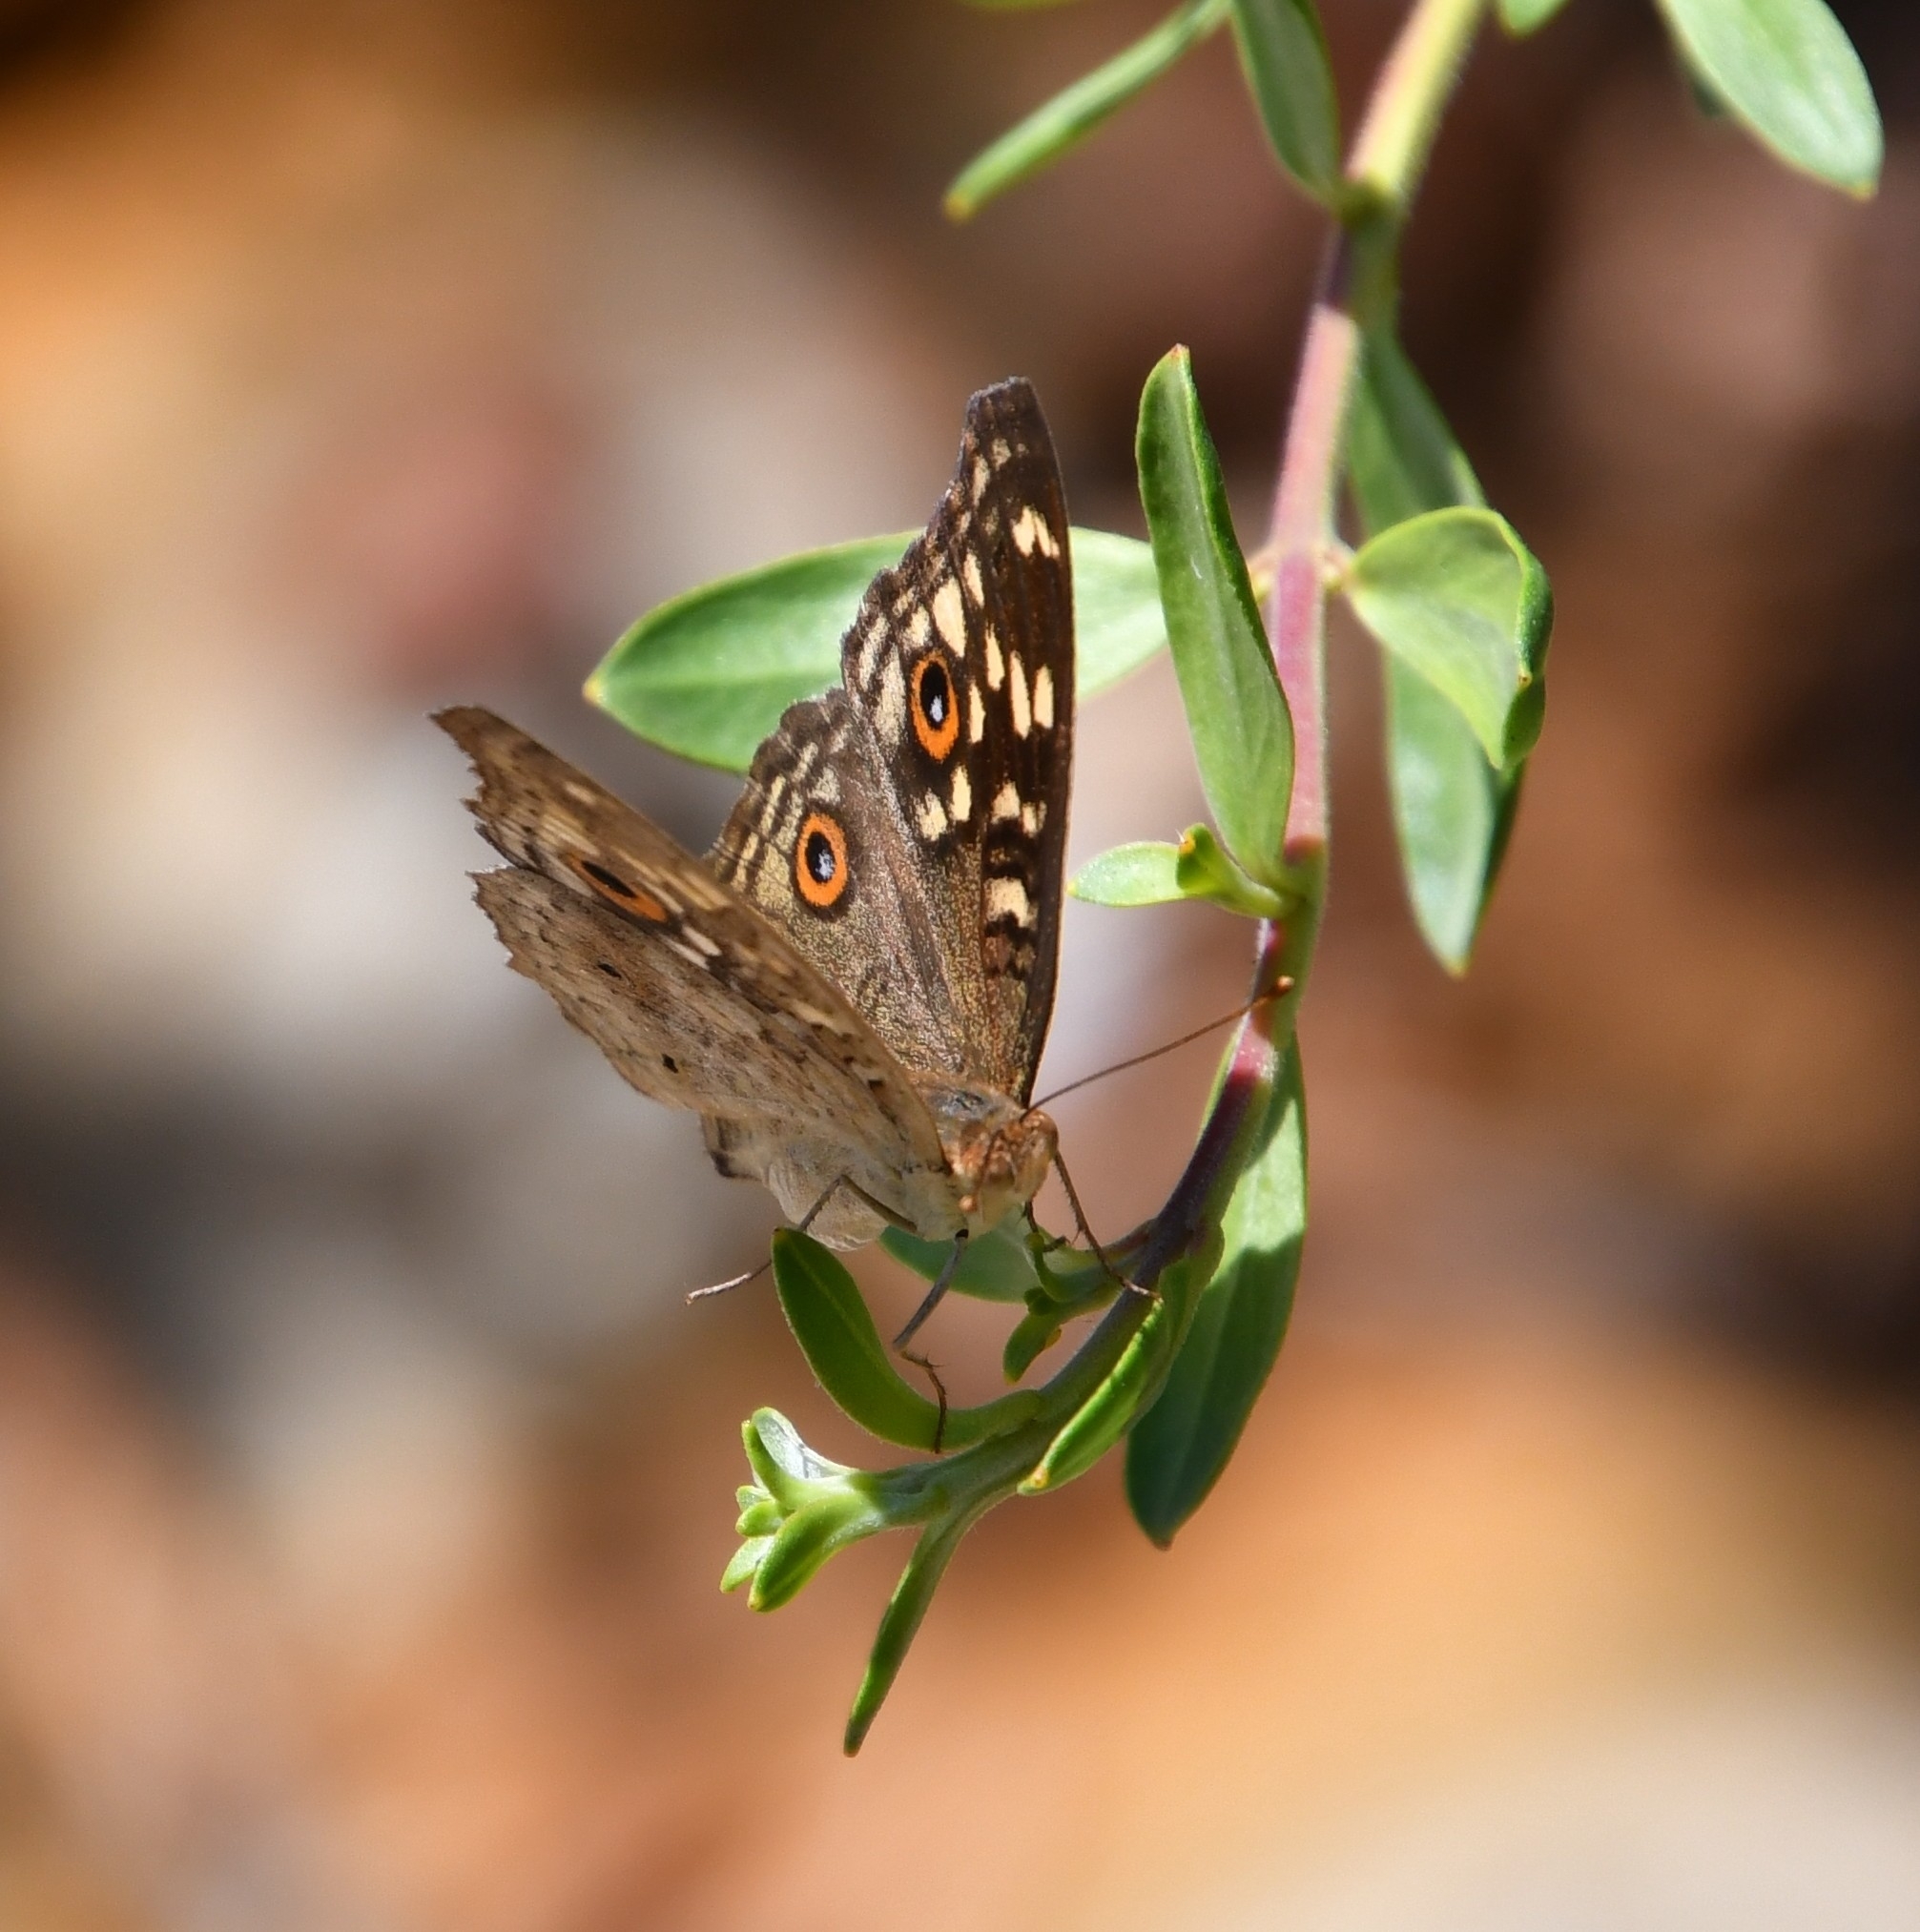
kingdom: Animalia
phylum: Arthropoda
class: Insecta
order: Lepidoptera
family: Nymphalidae
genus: Junonia
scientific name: Junonia lemonias
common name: Lemon pansy
